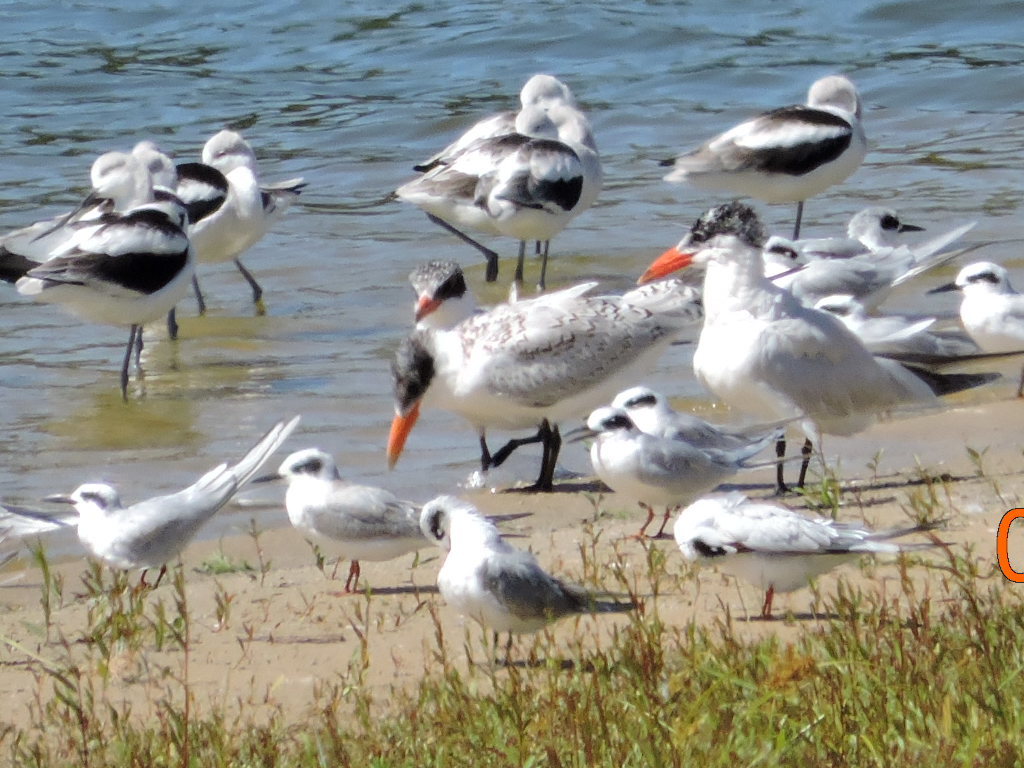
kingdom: Animalia
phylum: Chordata
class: Aves
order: Charadriiformes
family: Laridae
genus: Hydroprogne
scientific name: Hydroprogne caspia
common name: Caspian tern
